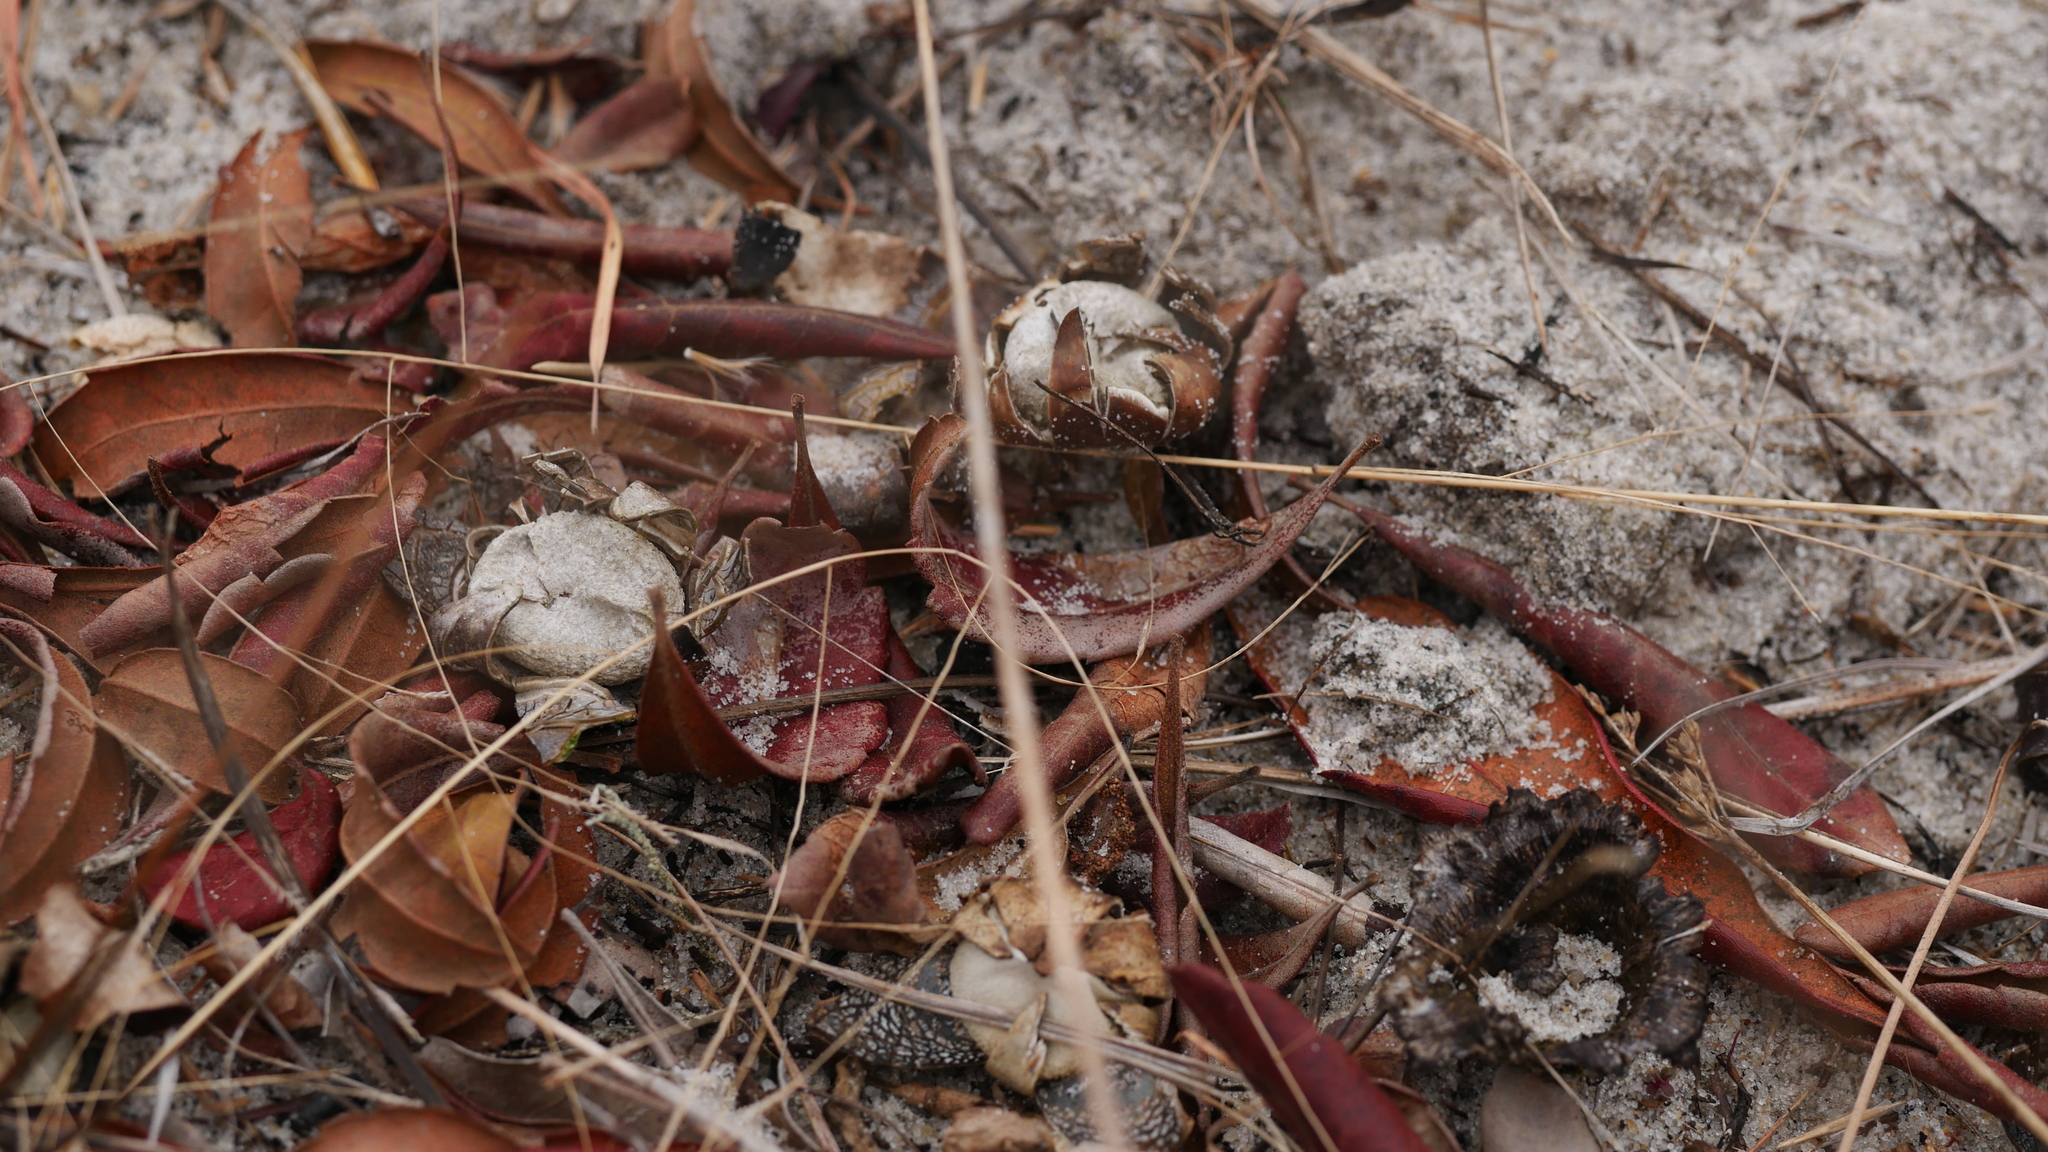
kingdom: Fungi
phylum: Basidiomycota
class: Agaricomycetes
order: Boletales
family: Diplocystidiaceae
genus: Astraeus
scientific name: Astraeus smithii
